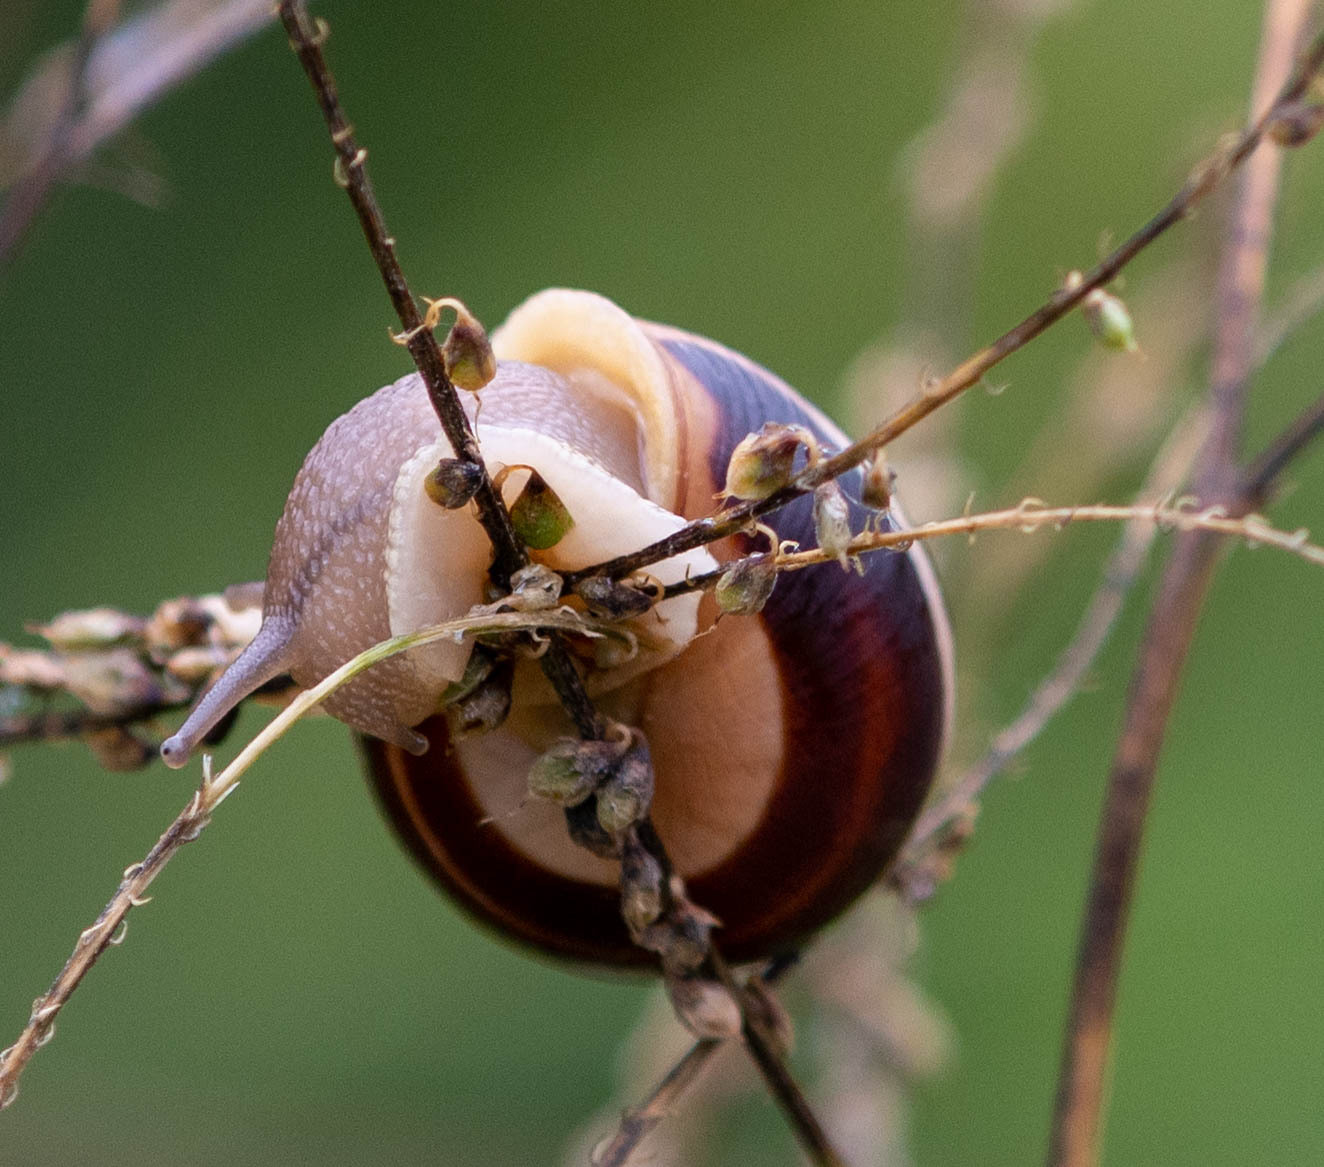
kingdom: Animalia
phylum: Mollusca
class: Gastropoda
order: Stylommatophora
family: Helicidae
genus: Cepaea
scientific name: Cepaea nemoralis
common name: Grovesnail
